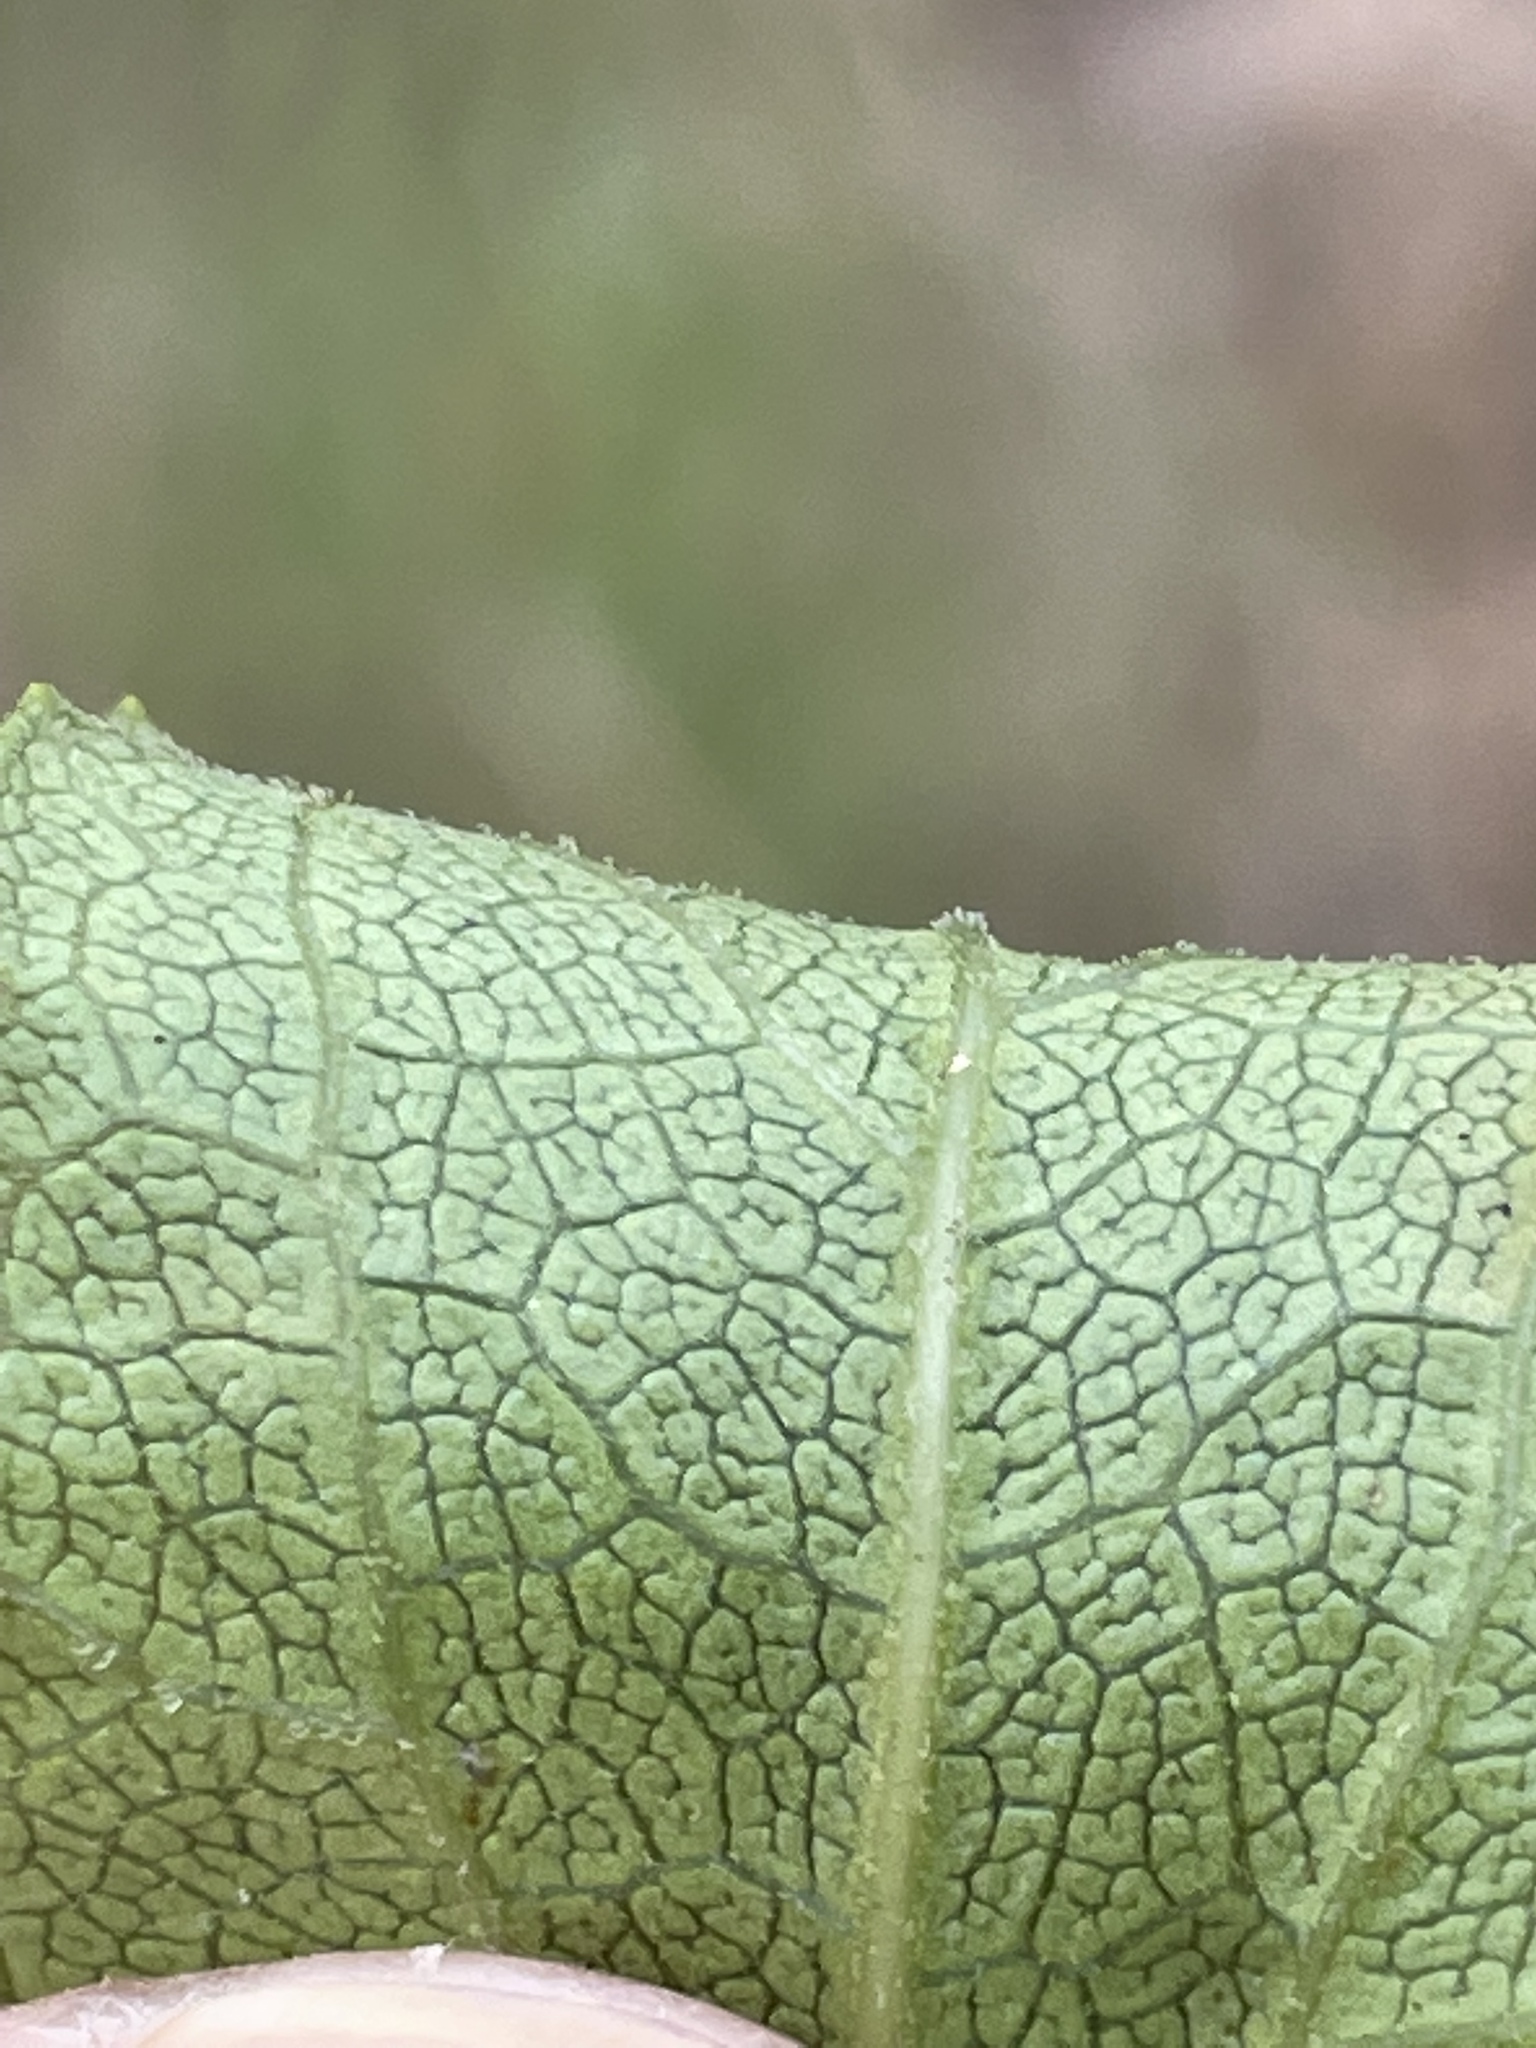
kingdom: Plantae
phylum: Tracheophyta
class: Magnoliopsida
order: Asterales
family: Asteraceae
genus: Ageratina
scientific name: Ageratina aromatica
